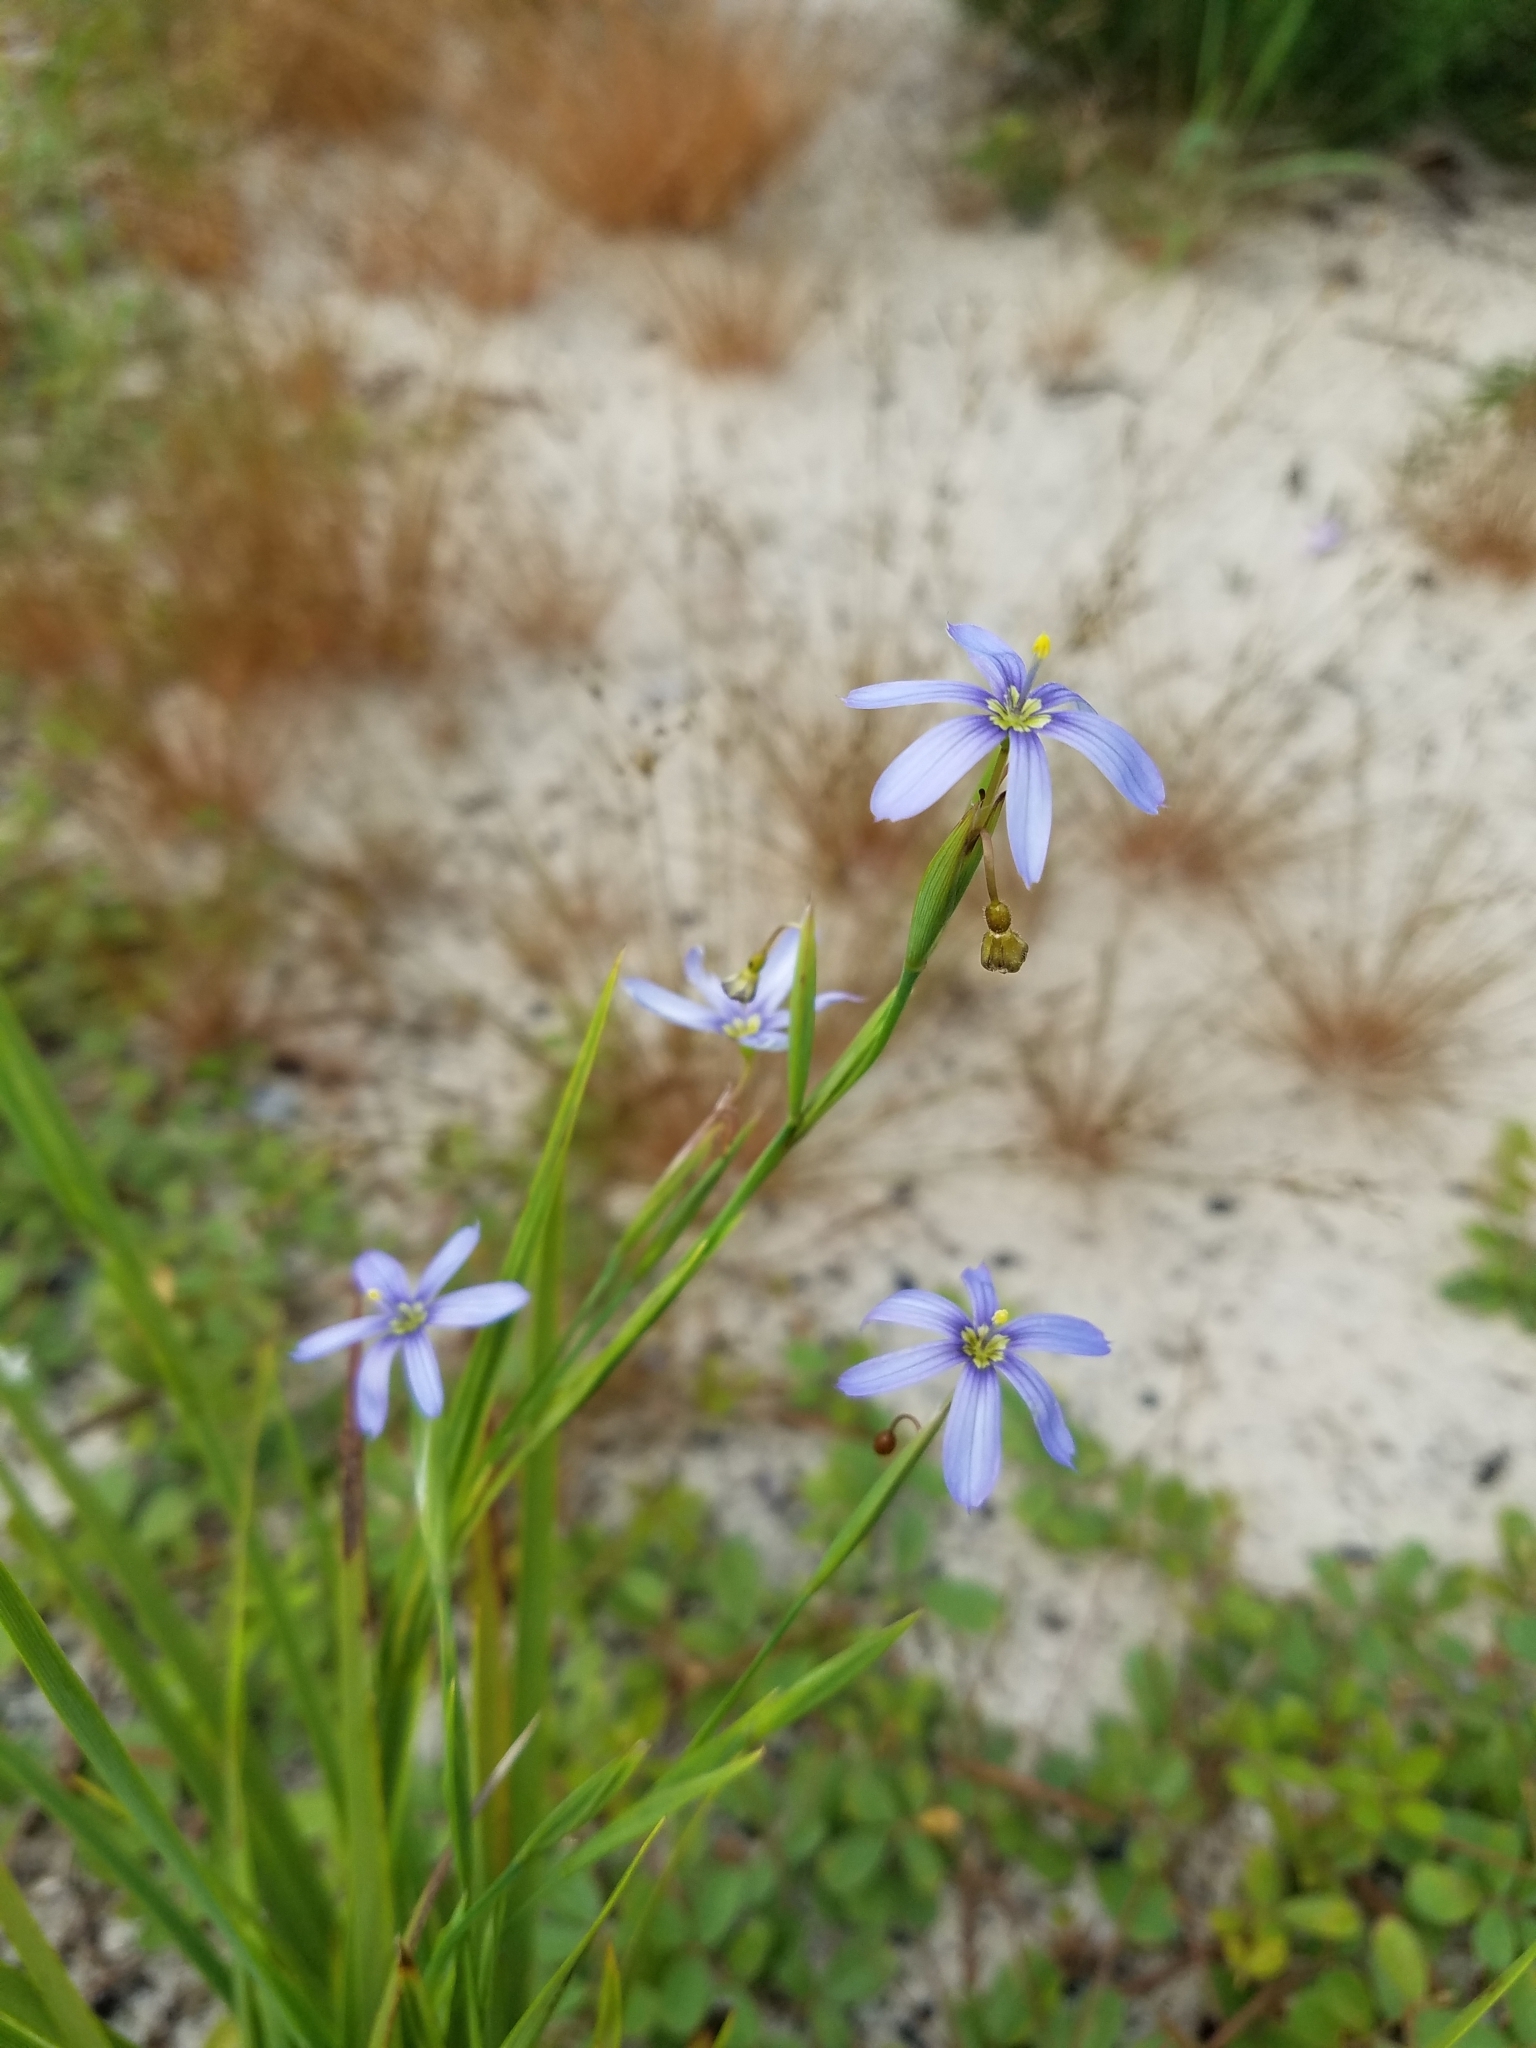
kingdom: Plantae
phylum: Tracheophyta
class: Liliopsida
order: Asparagales
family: Iridaceae
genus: Sisyrinchium
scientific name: Sisyrinchium xerophyllum
